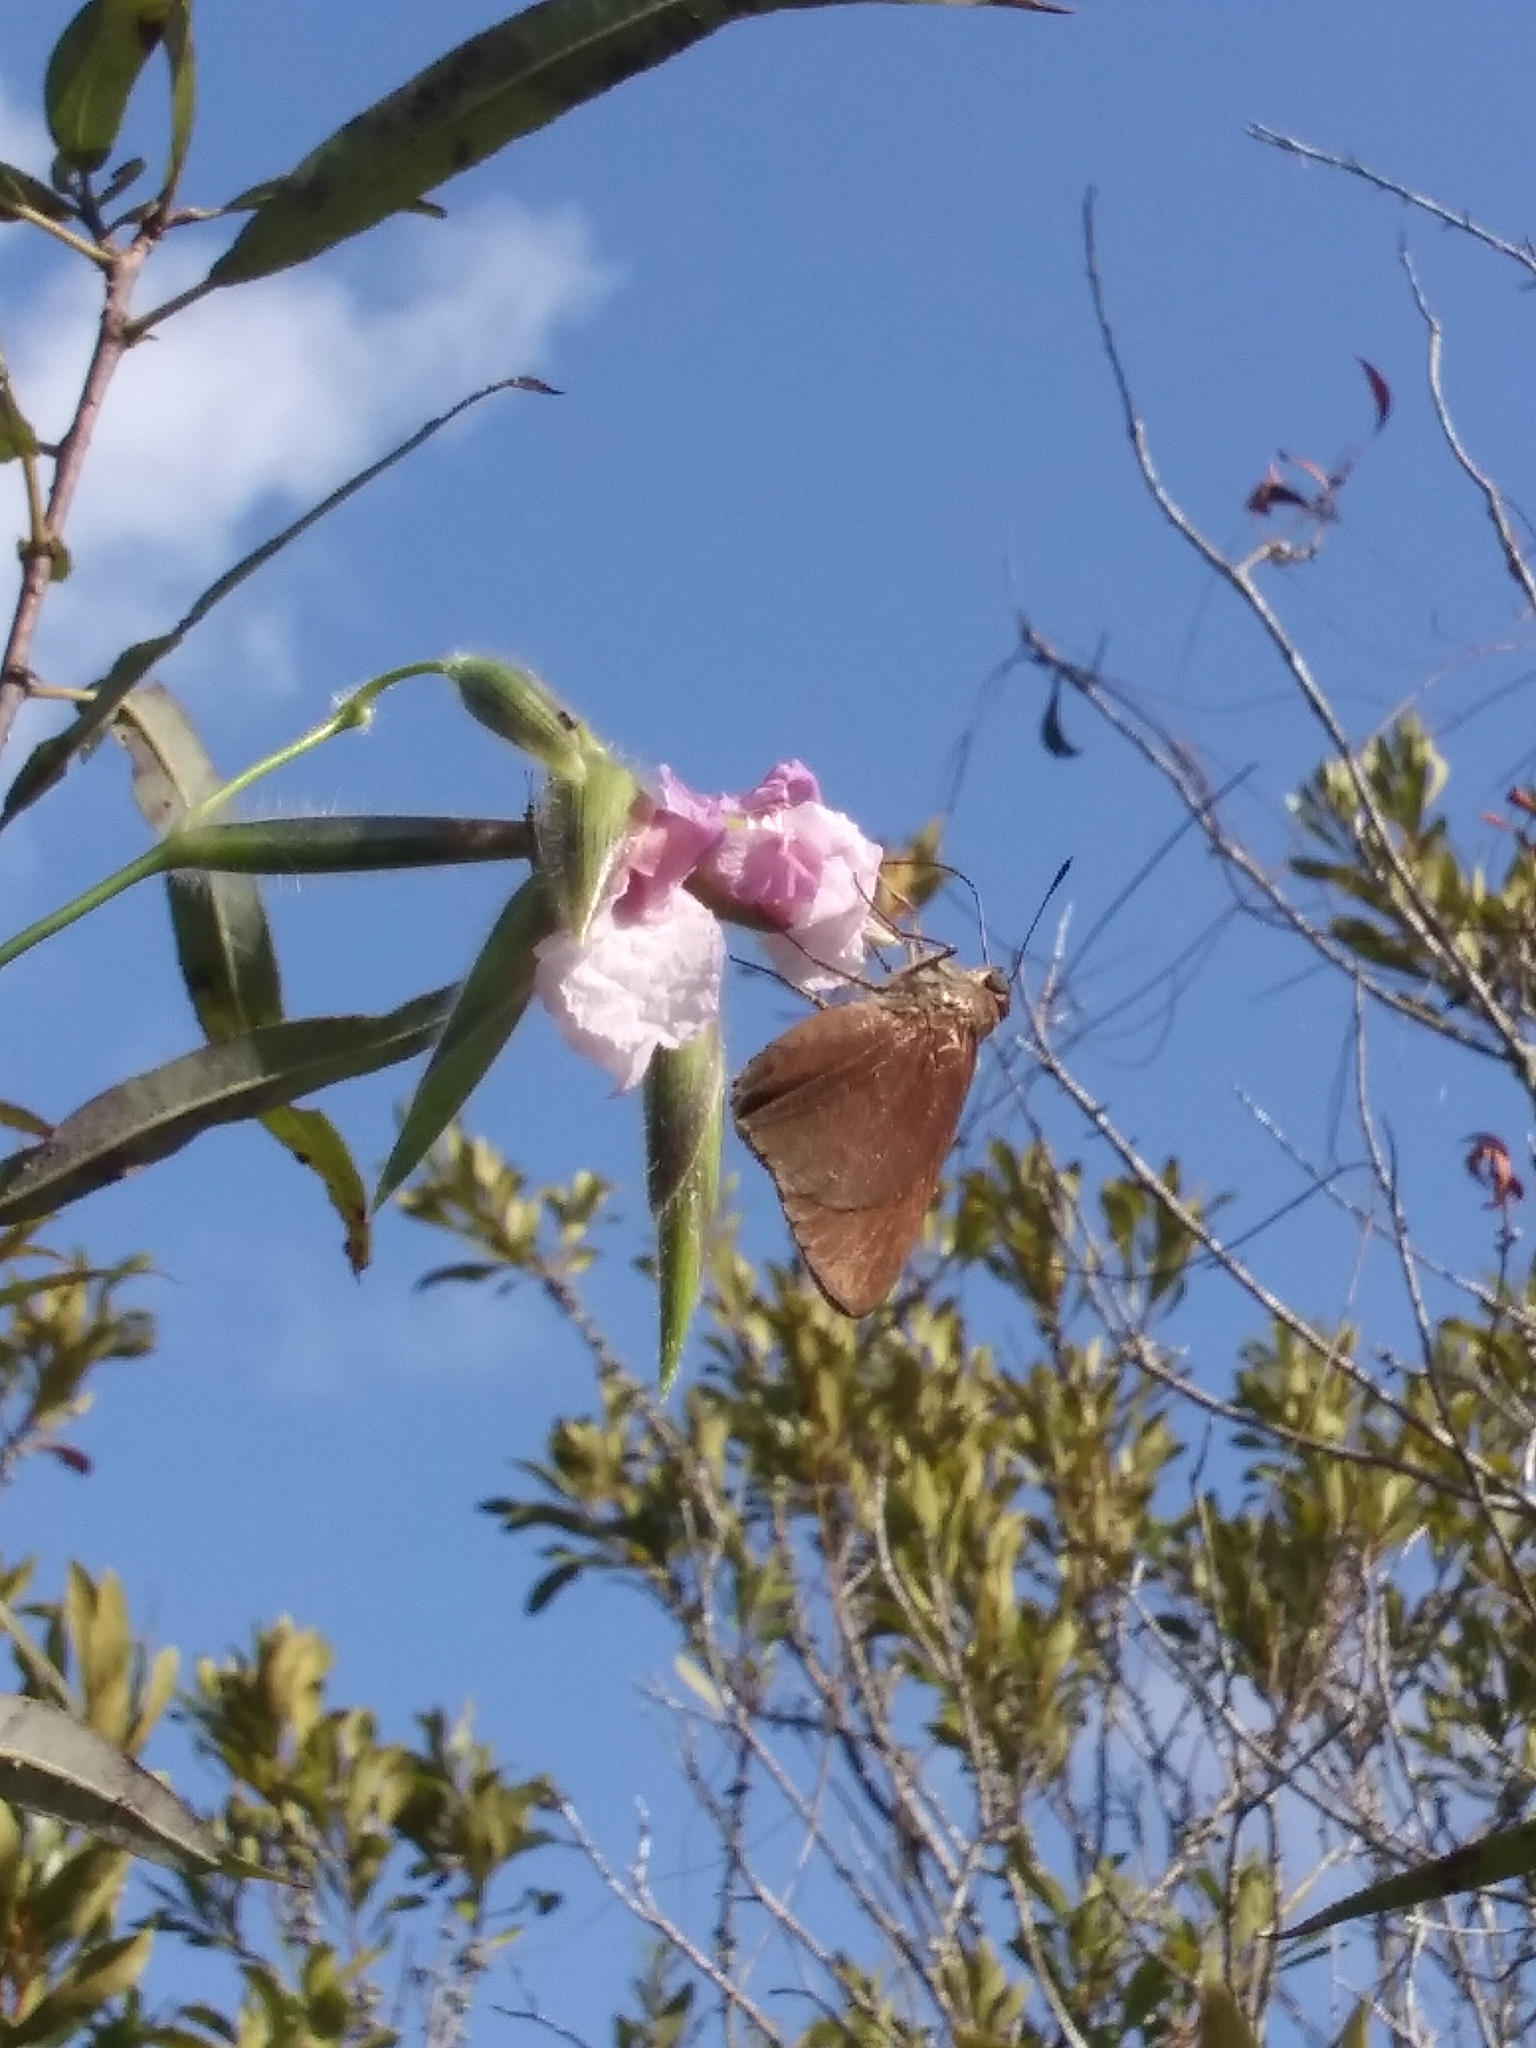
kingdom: Animalia
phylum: Arthropoda
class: Insecta
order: Lepidoptera
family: Hesperiidae
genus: Asbolis
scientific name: Asbolis capucinus
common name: Monk skipper
